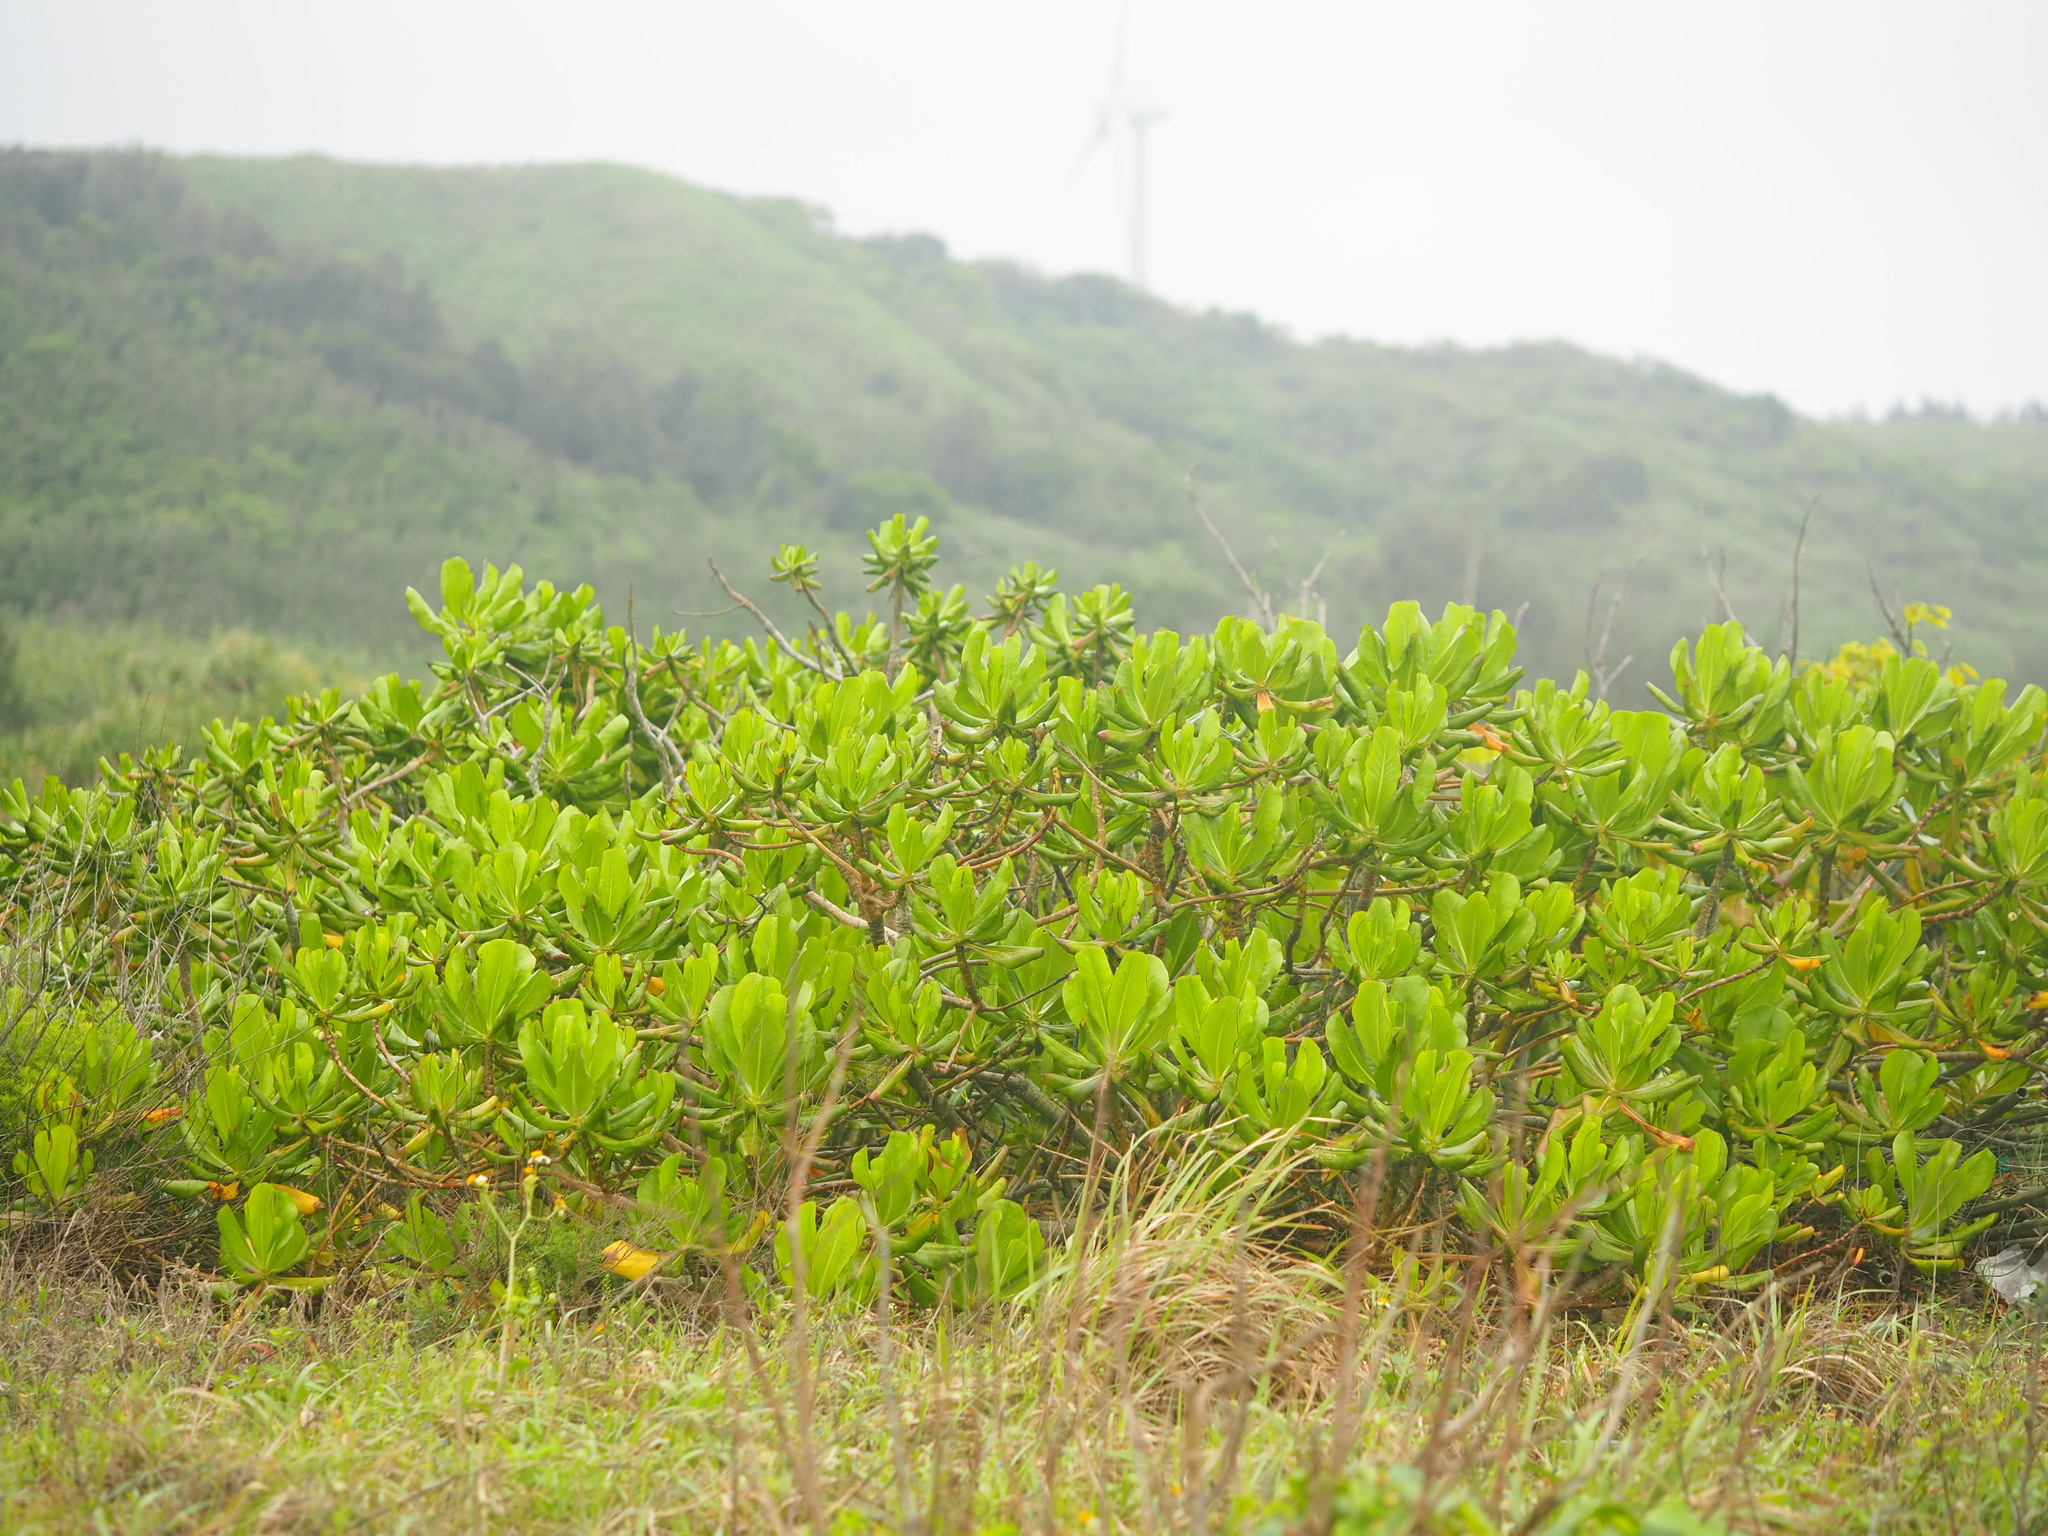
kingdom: Plantae
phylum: Tracheophyta
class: Magnoliopsida
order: Asterales
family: Goodeniaceae
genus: Scaevola
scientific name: Scaevola taccada
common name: Sea lettucetree
